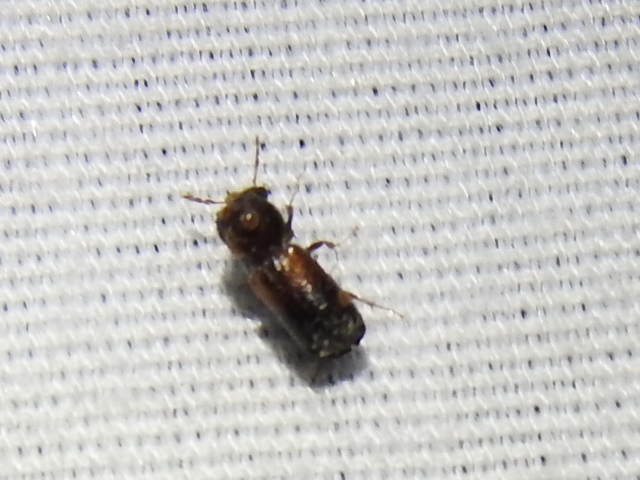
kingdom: Animalia
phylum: Arthropoda
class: Insecta
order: Coleoptera
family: Bostrichidae
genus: Xylobiops
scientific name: Xylobiops basilaris
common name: Red-shouldered bostrichid
